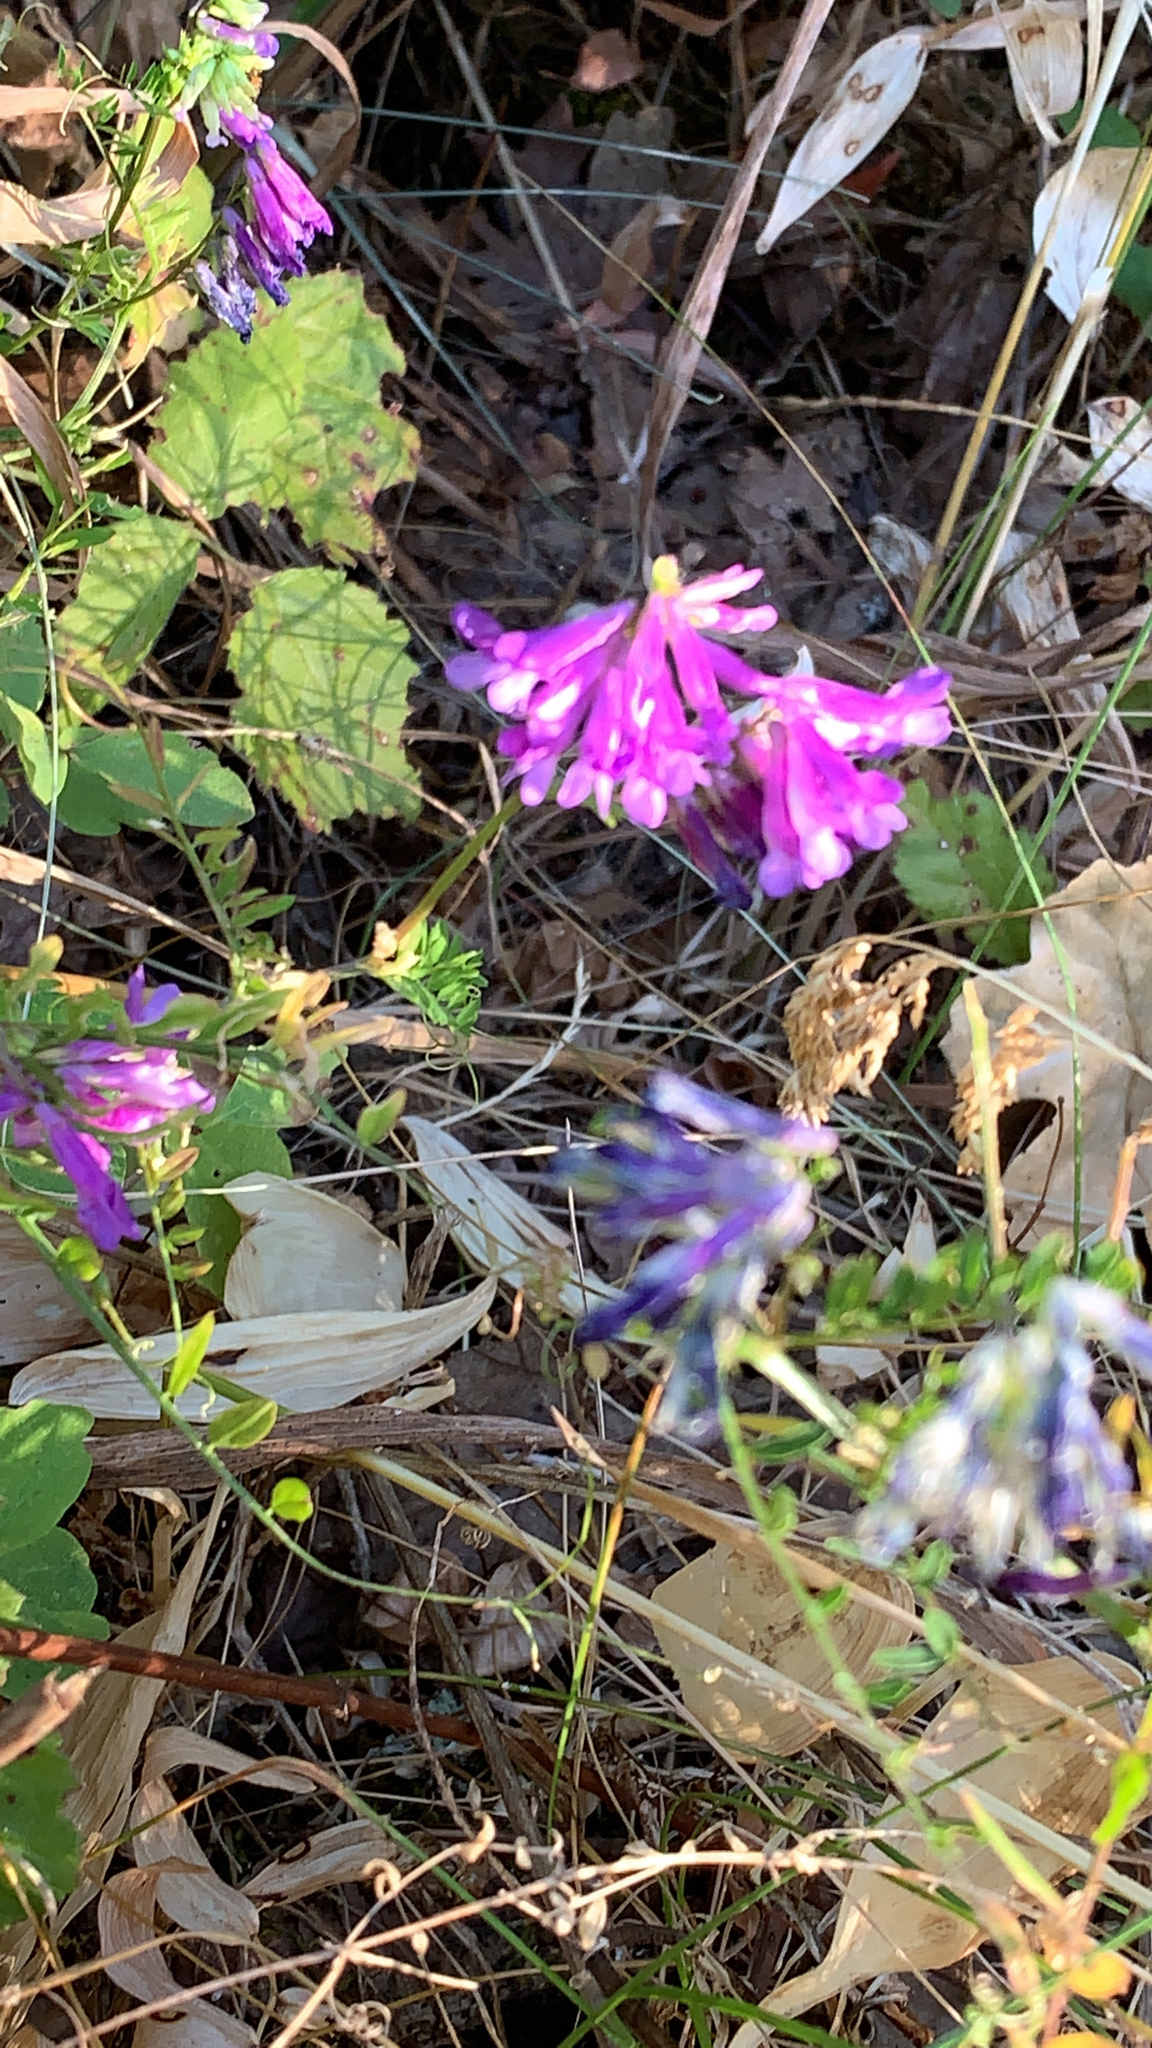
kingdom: Plantae
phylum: Tracheophyta
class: Magnoliopsida
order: Fabales
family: Fabaceae
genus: Vicia
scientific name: Vicia villosa
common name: Fodder vetch
